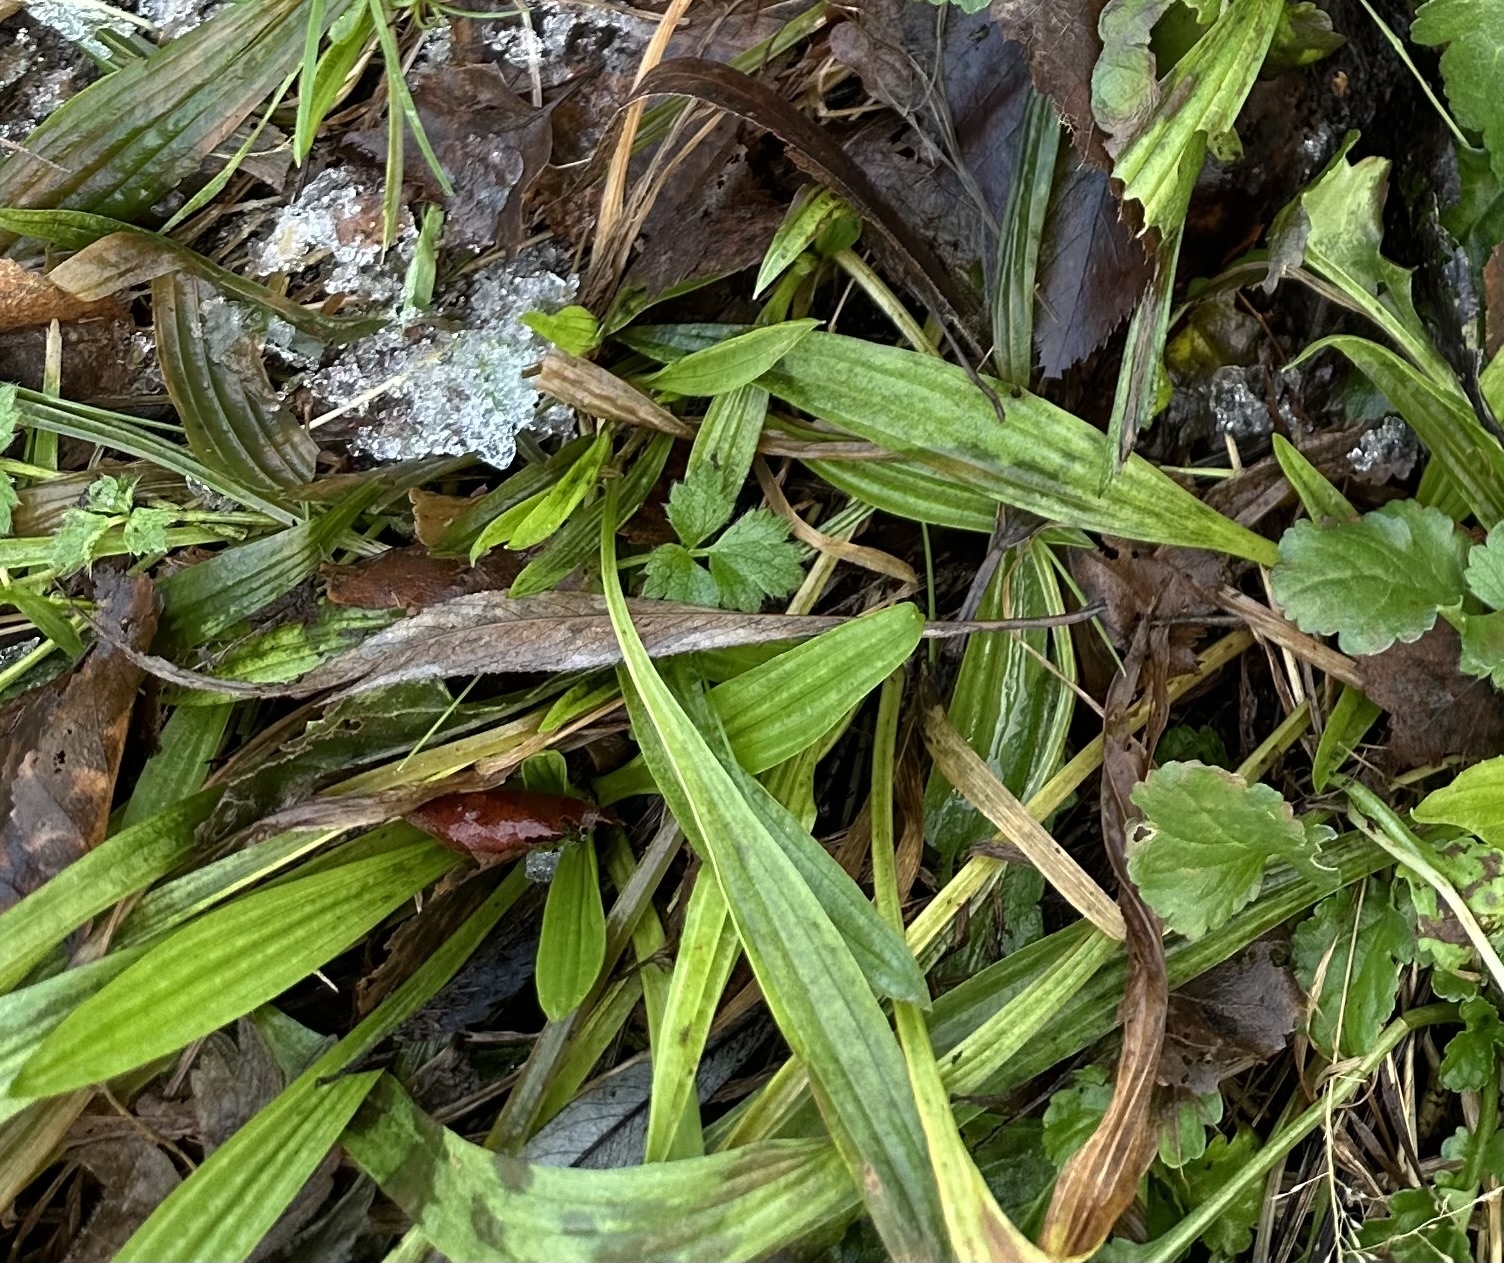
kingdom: Plantae
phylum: Tracheophyta
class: Magnoliopsida
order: Lamiales
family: Plantaginaceae
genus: Plantago
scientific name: Plantago lanceolata
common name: Ribwort plantain
